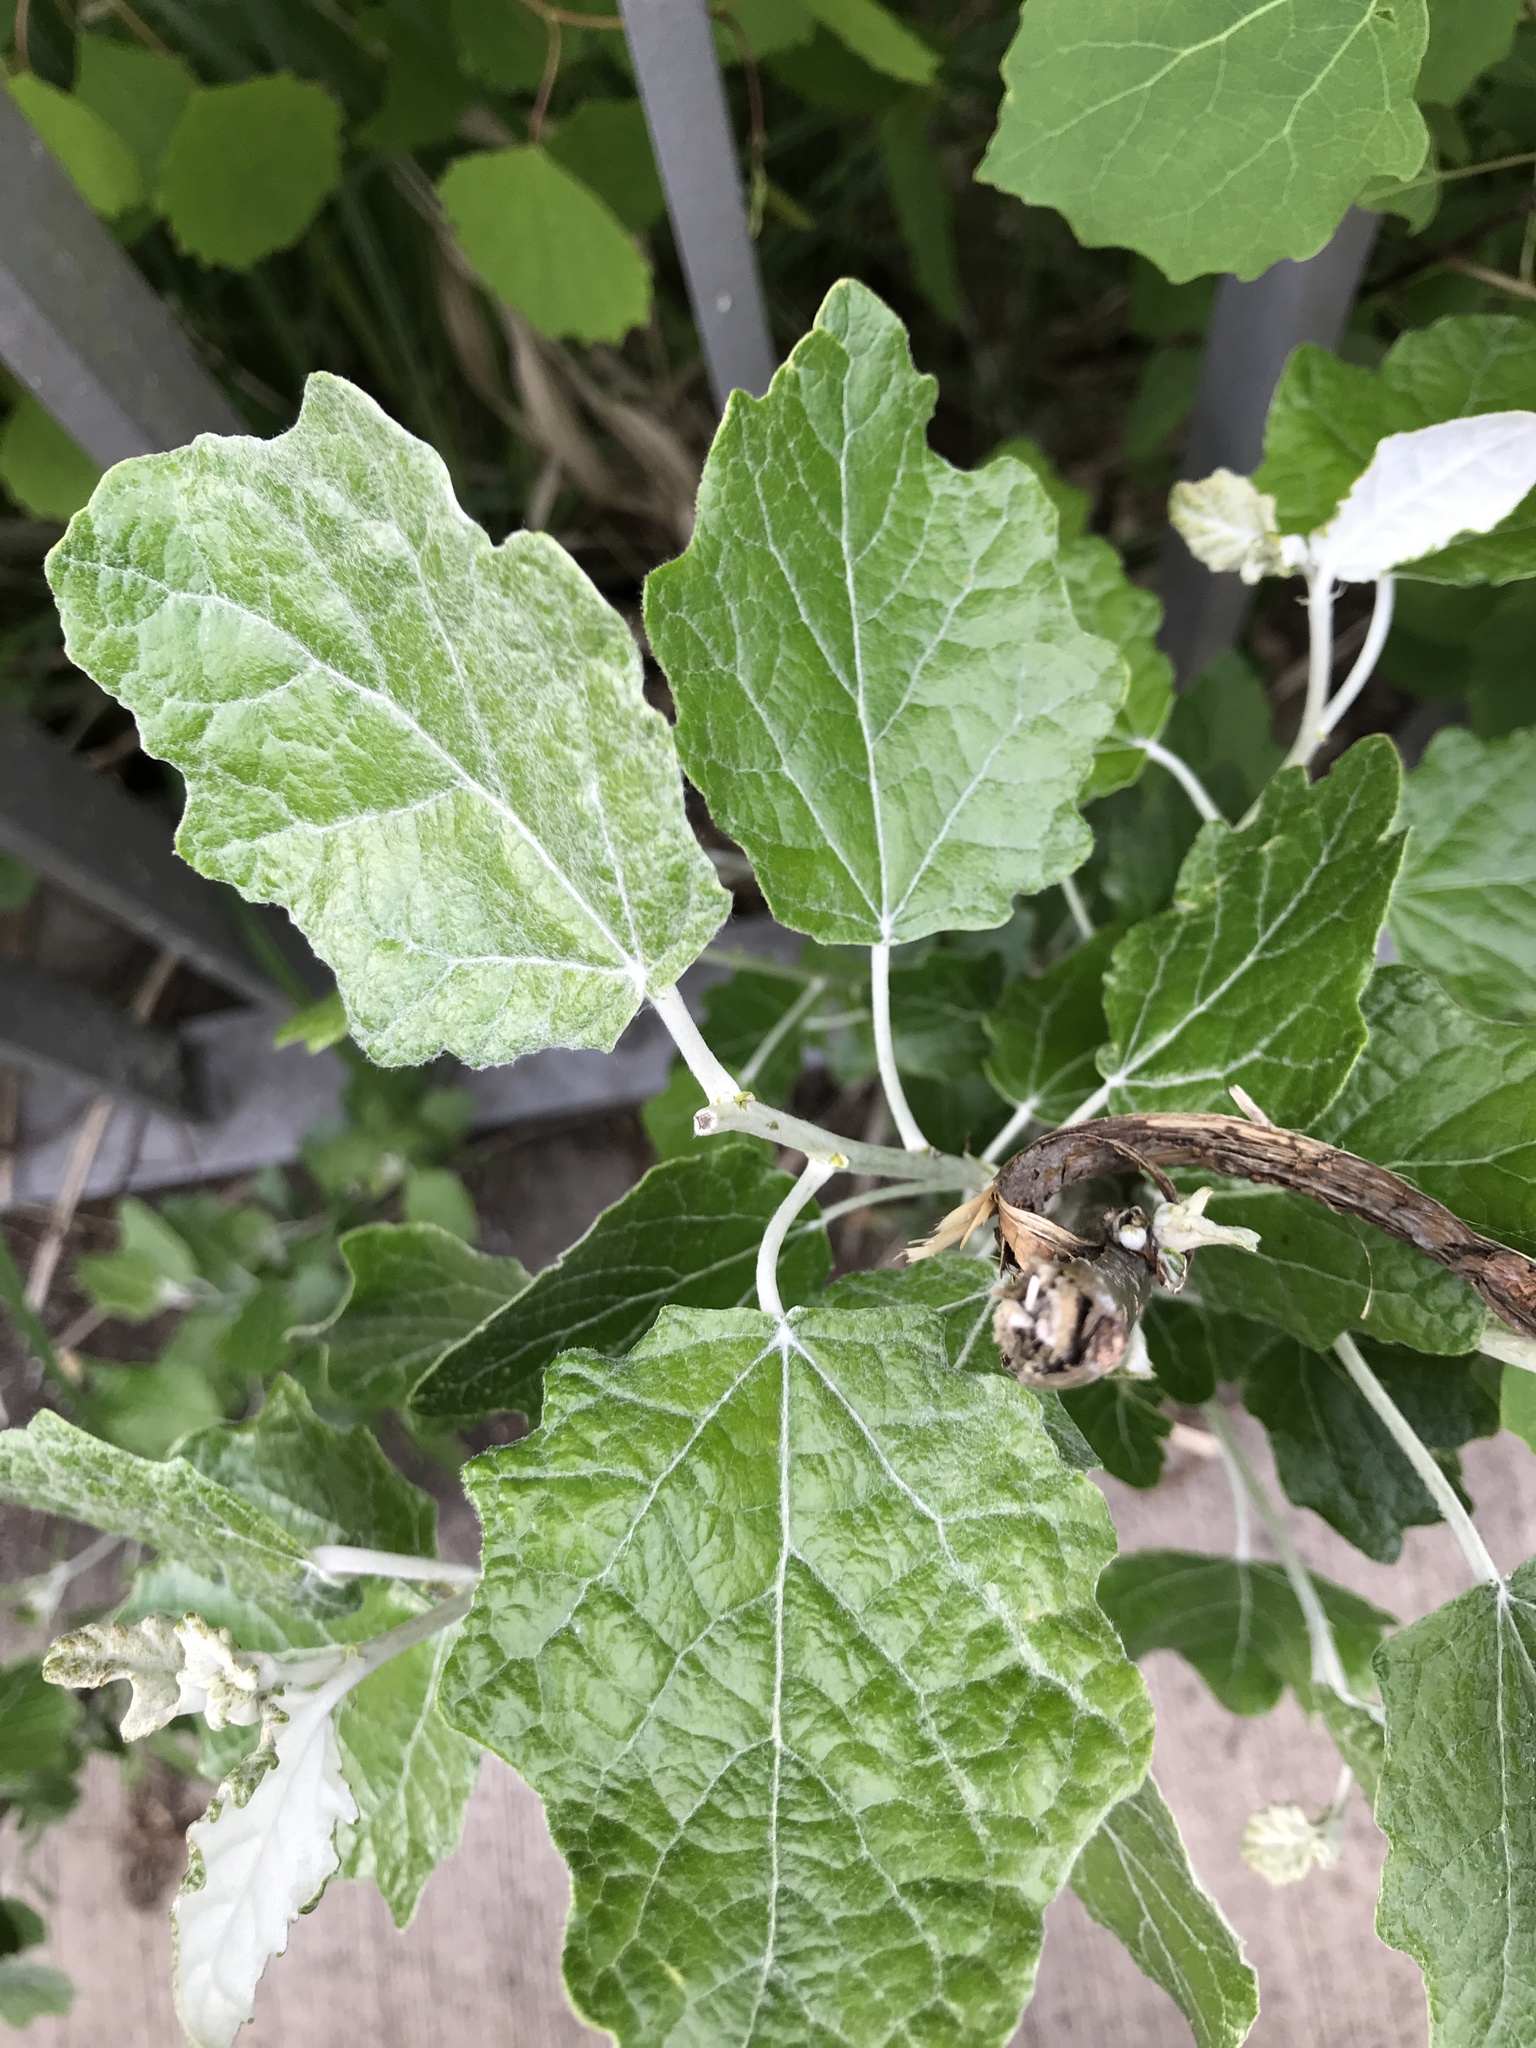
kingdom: Plantae
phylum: Tracheophyta
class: Magnoliopsida
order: Malpighiales
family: Salicaceae
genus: Populus
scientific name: Populus alba
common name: White poplar
